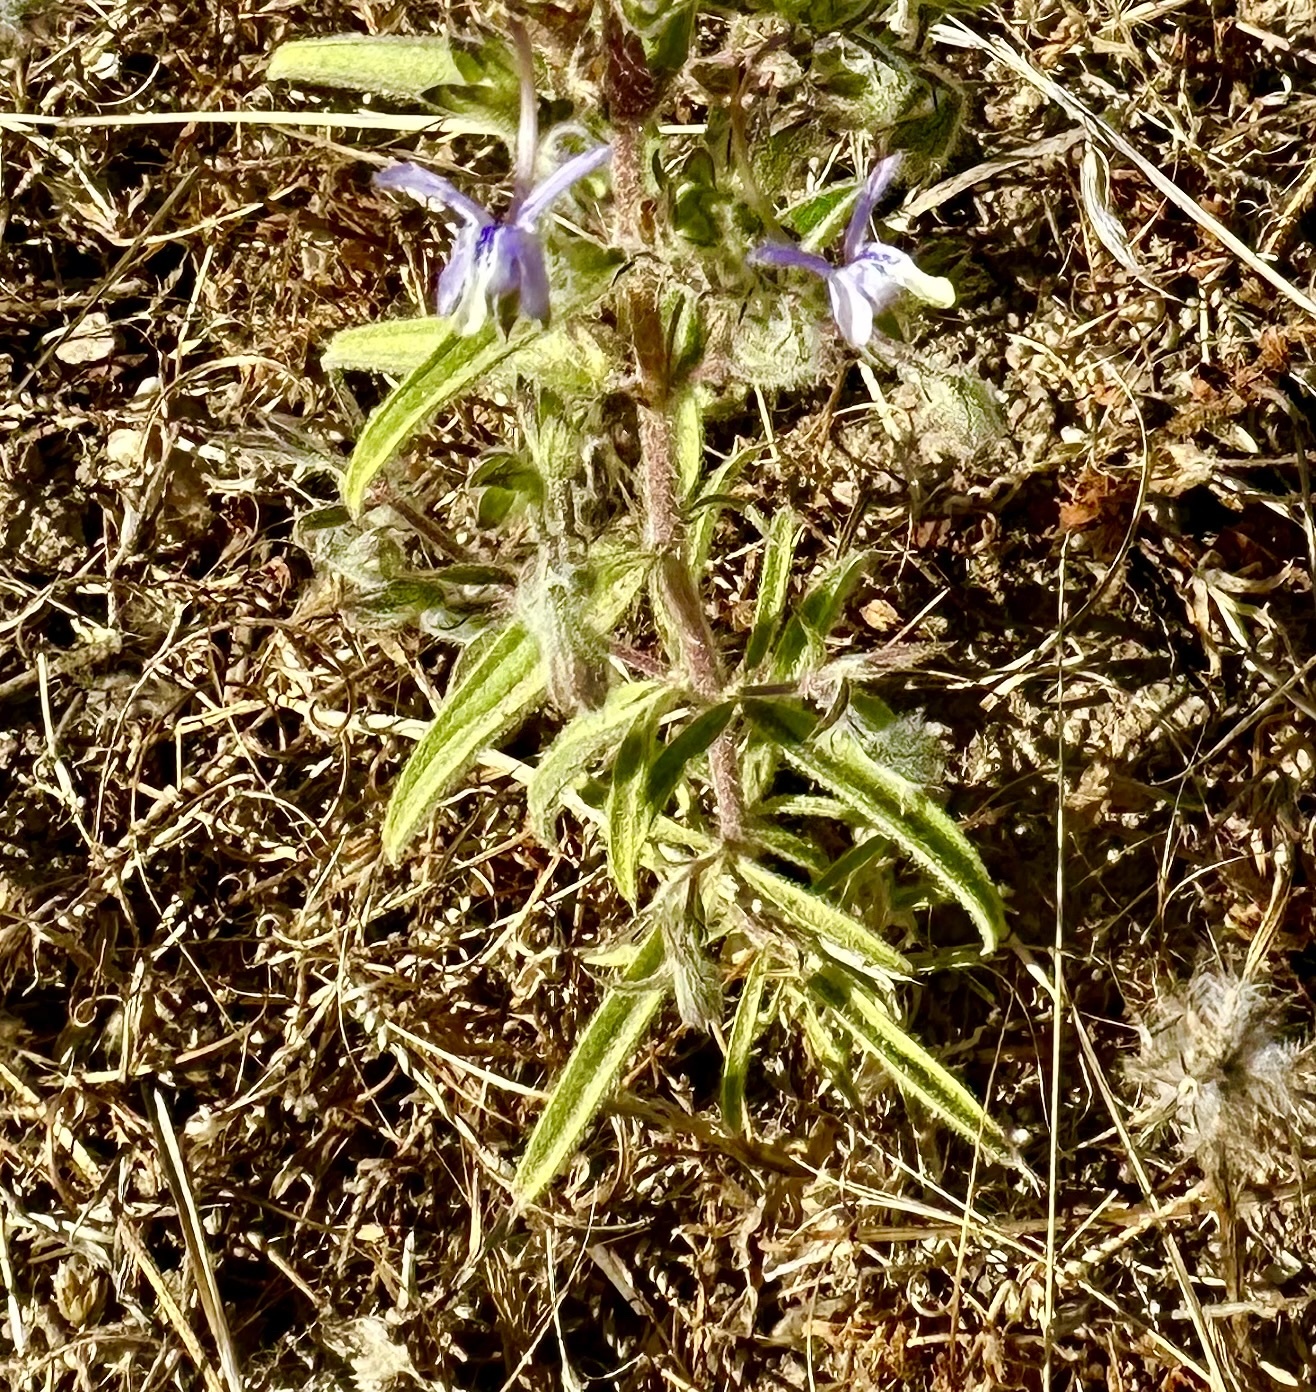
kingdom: Plantae
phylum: Tracheophyta
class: Magnoliopsida
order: Lamiales
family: Lamiaceae
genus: Trichostema
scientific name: Trichostema lanceolatum
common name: Vinegar-weed
